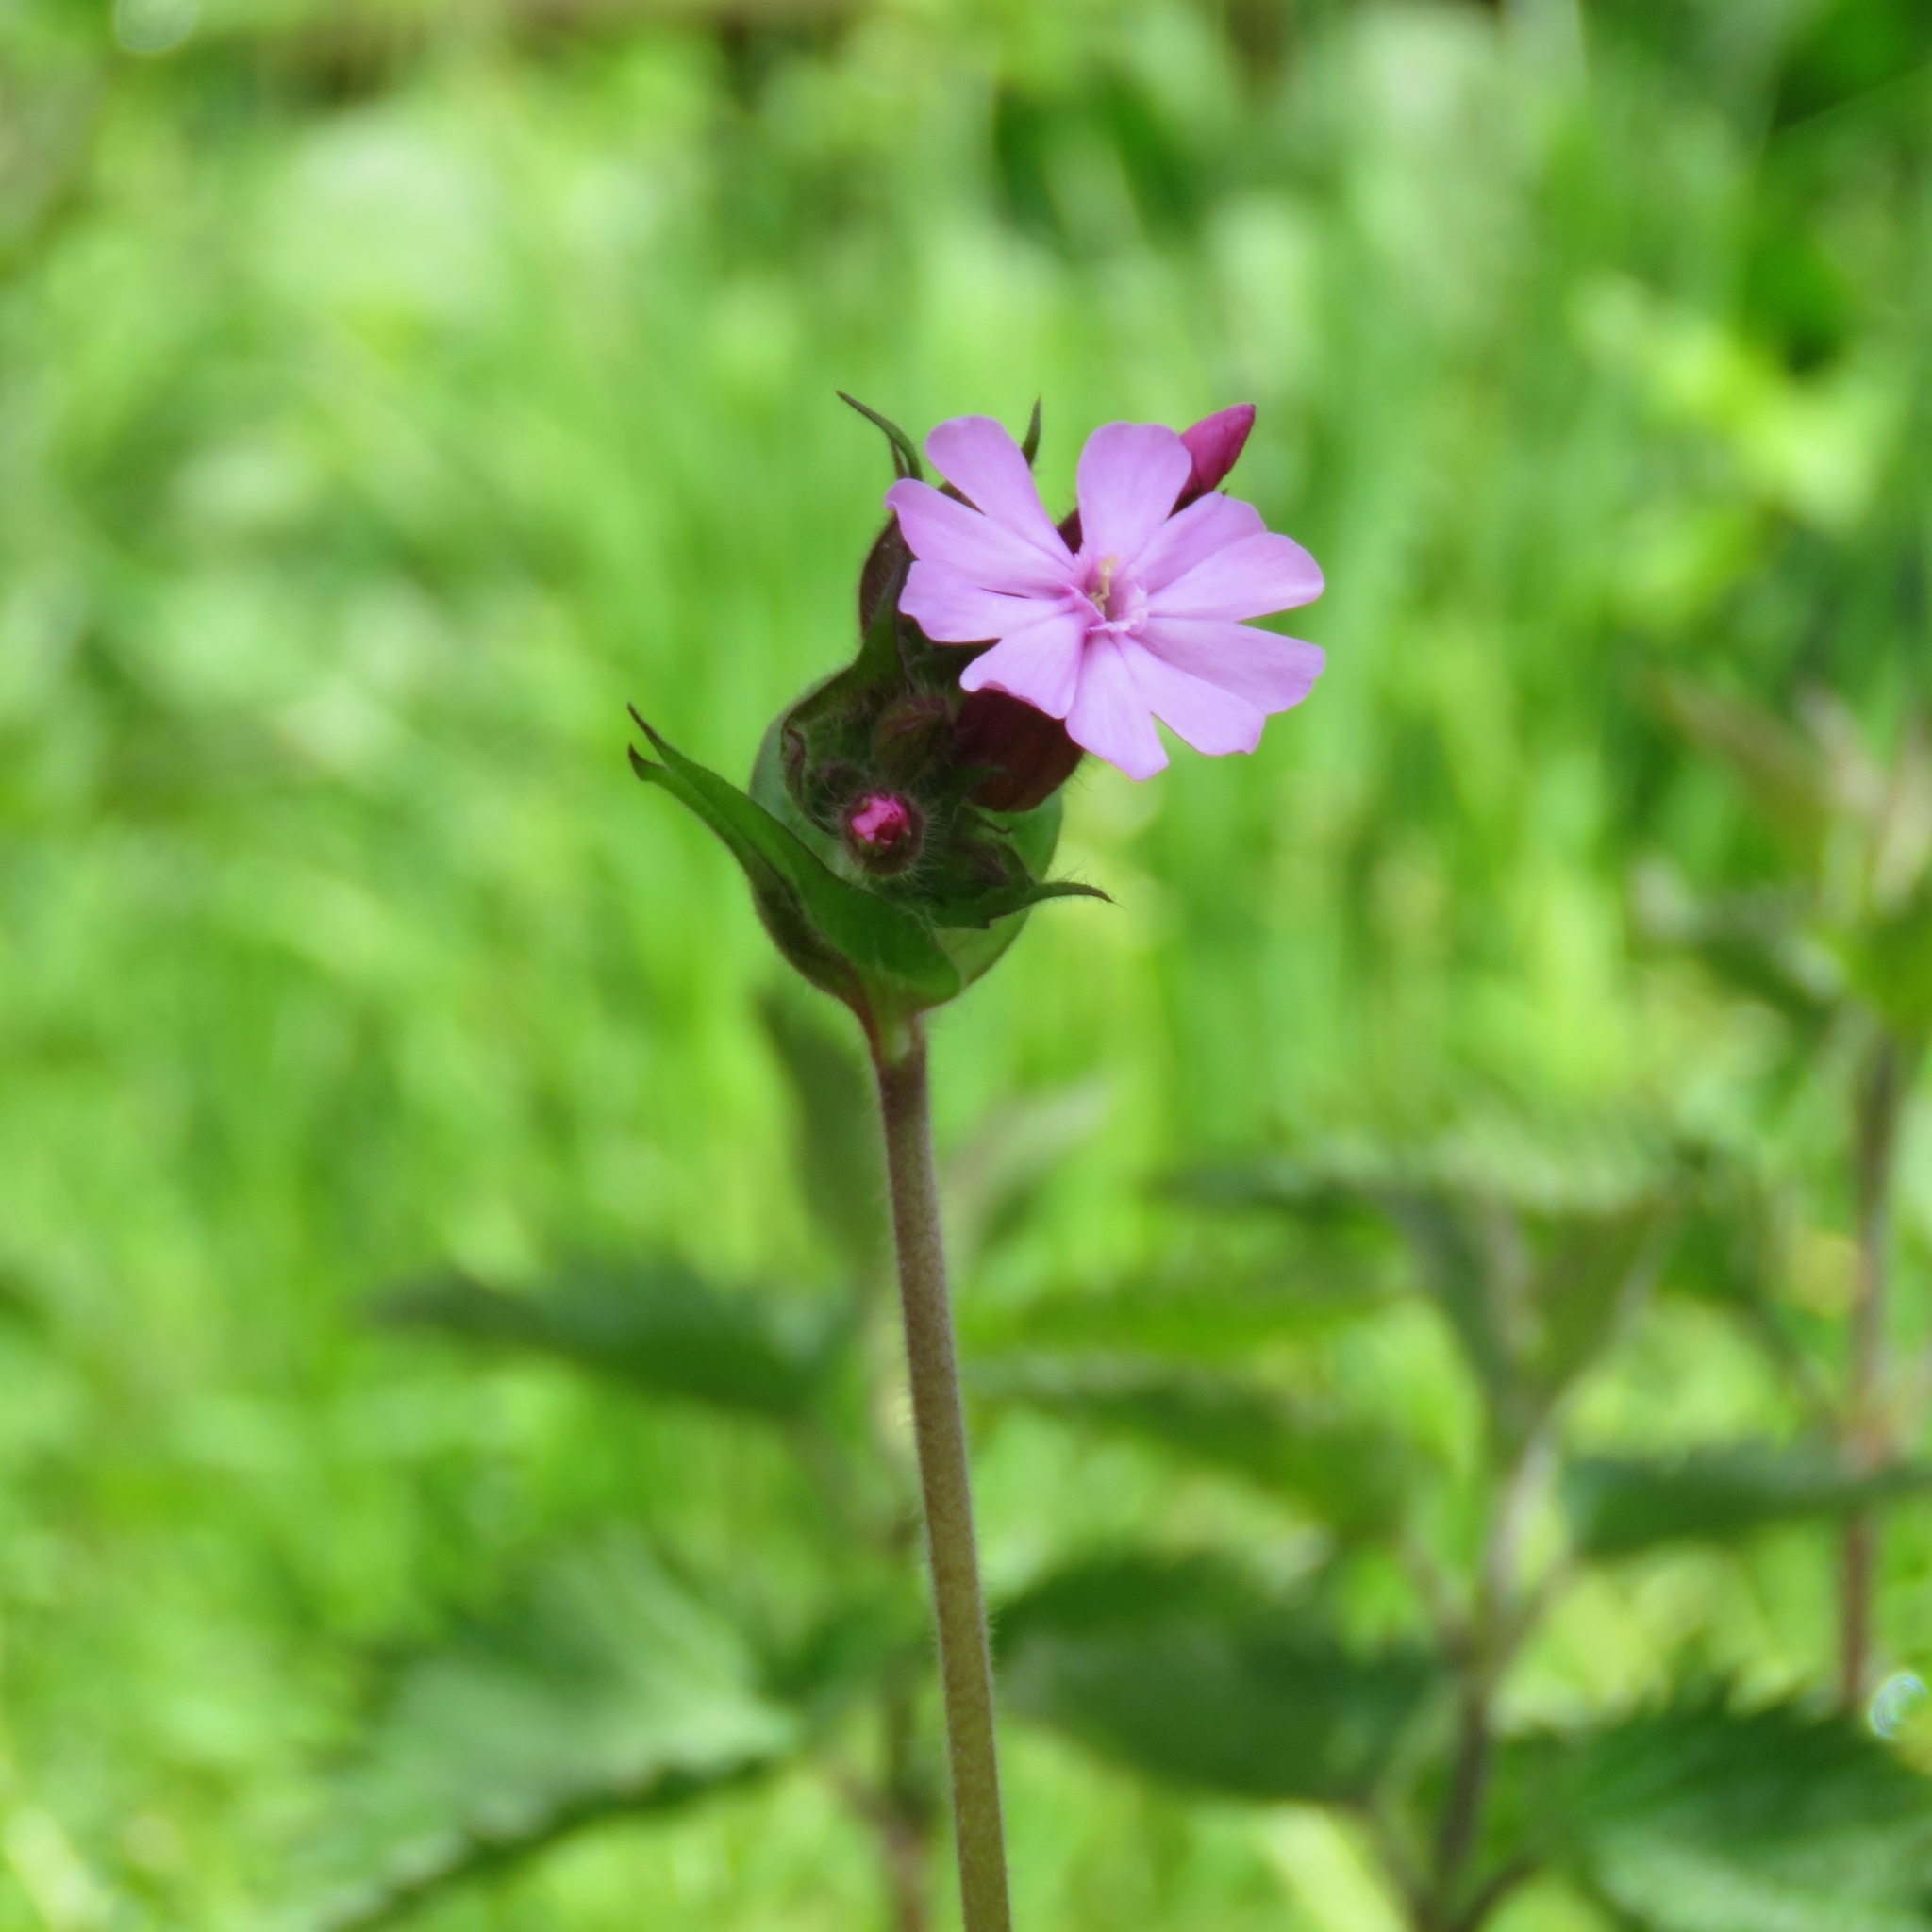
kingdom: Plantae
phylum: Tracheophyta
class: Magnoliopsida
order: Caryophyllales
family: Caryophyllaceae
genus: Silene
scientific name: Silene dioica
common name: Red campion
